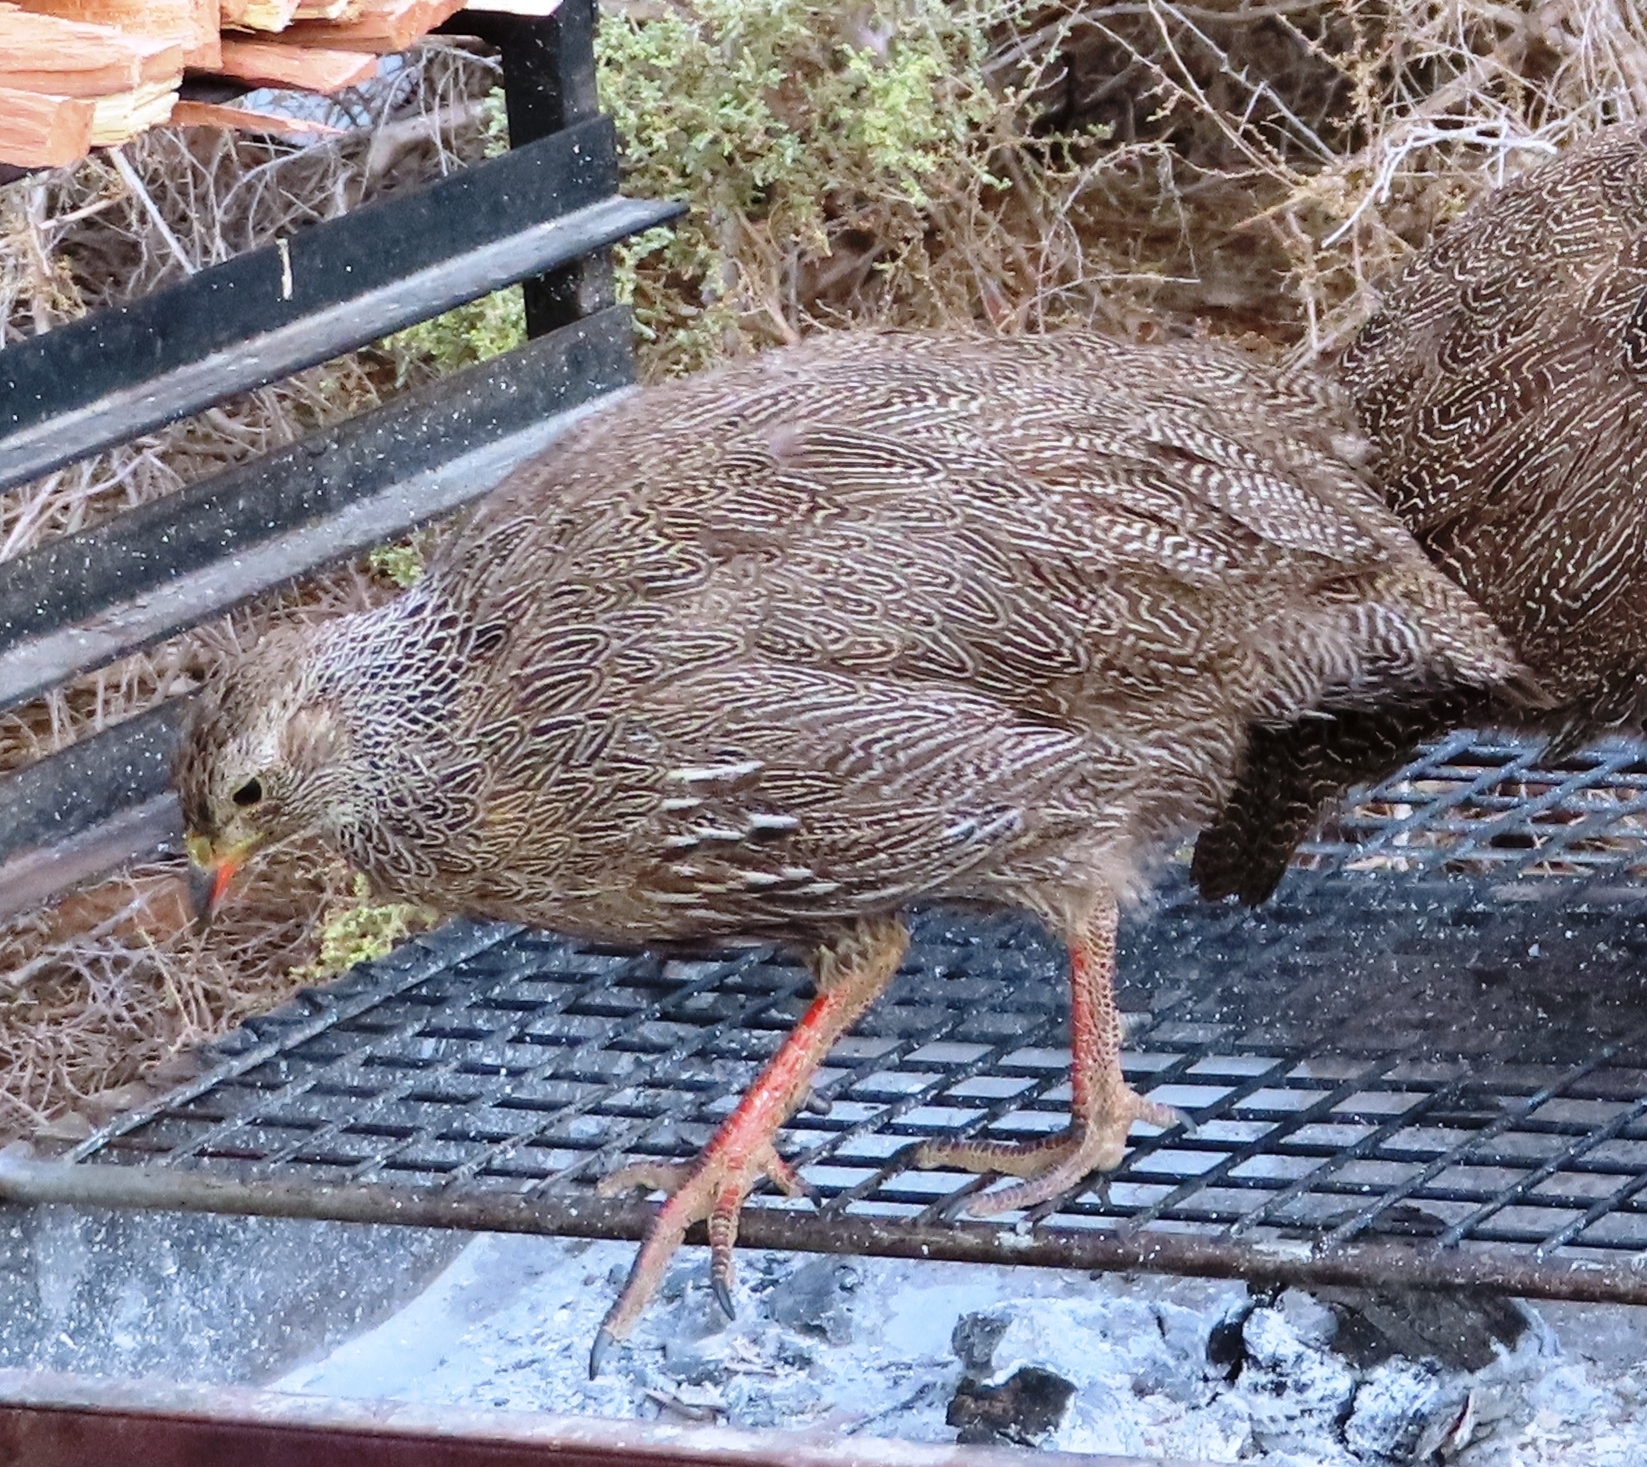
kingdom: Animalia
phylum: Chordata
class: Aves
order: Galliformes
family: Phasianidae
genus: Pternistis
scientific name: Pternistis capensis
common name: Cape spurfowl
